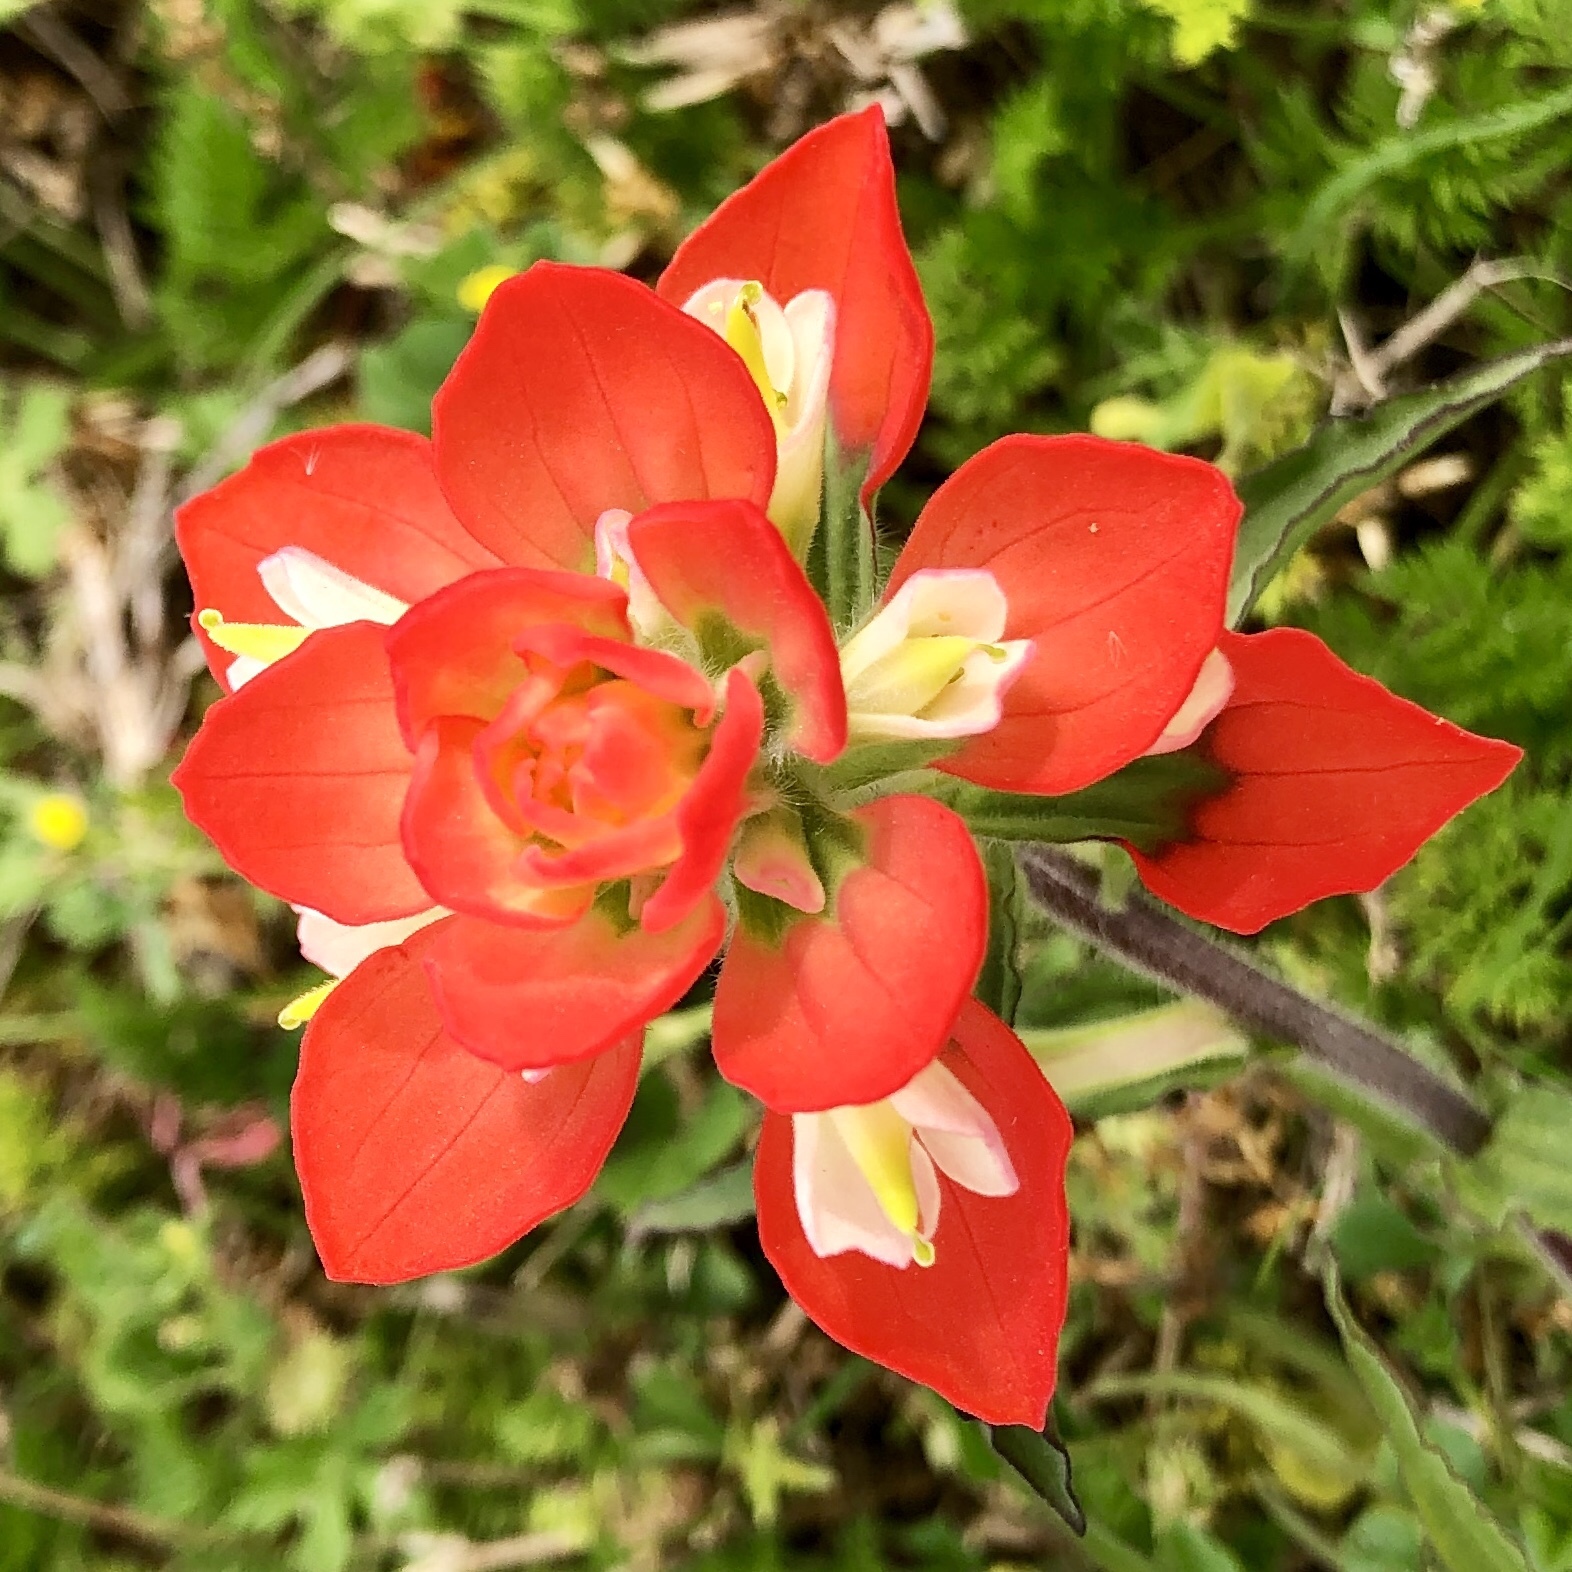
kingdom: Plantae
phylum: Tracheophyta
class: Magnoliopsida
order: Lamiales
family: Orobanchaceae
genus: Castilleja
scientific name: Castilleja indivisa
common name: Texas paintbrush
